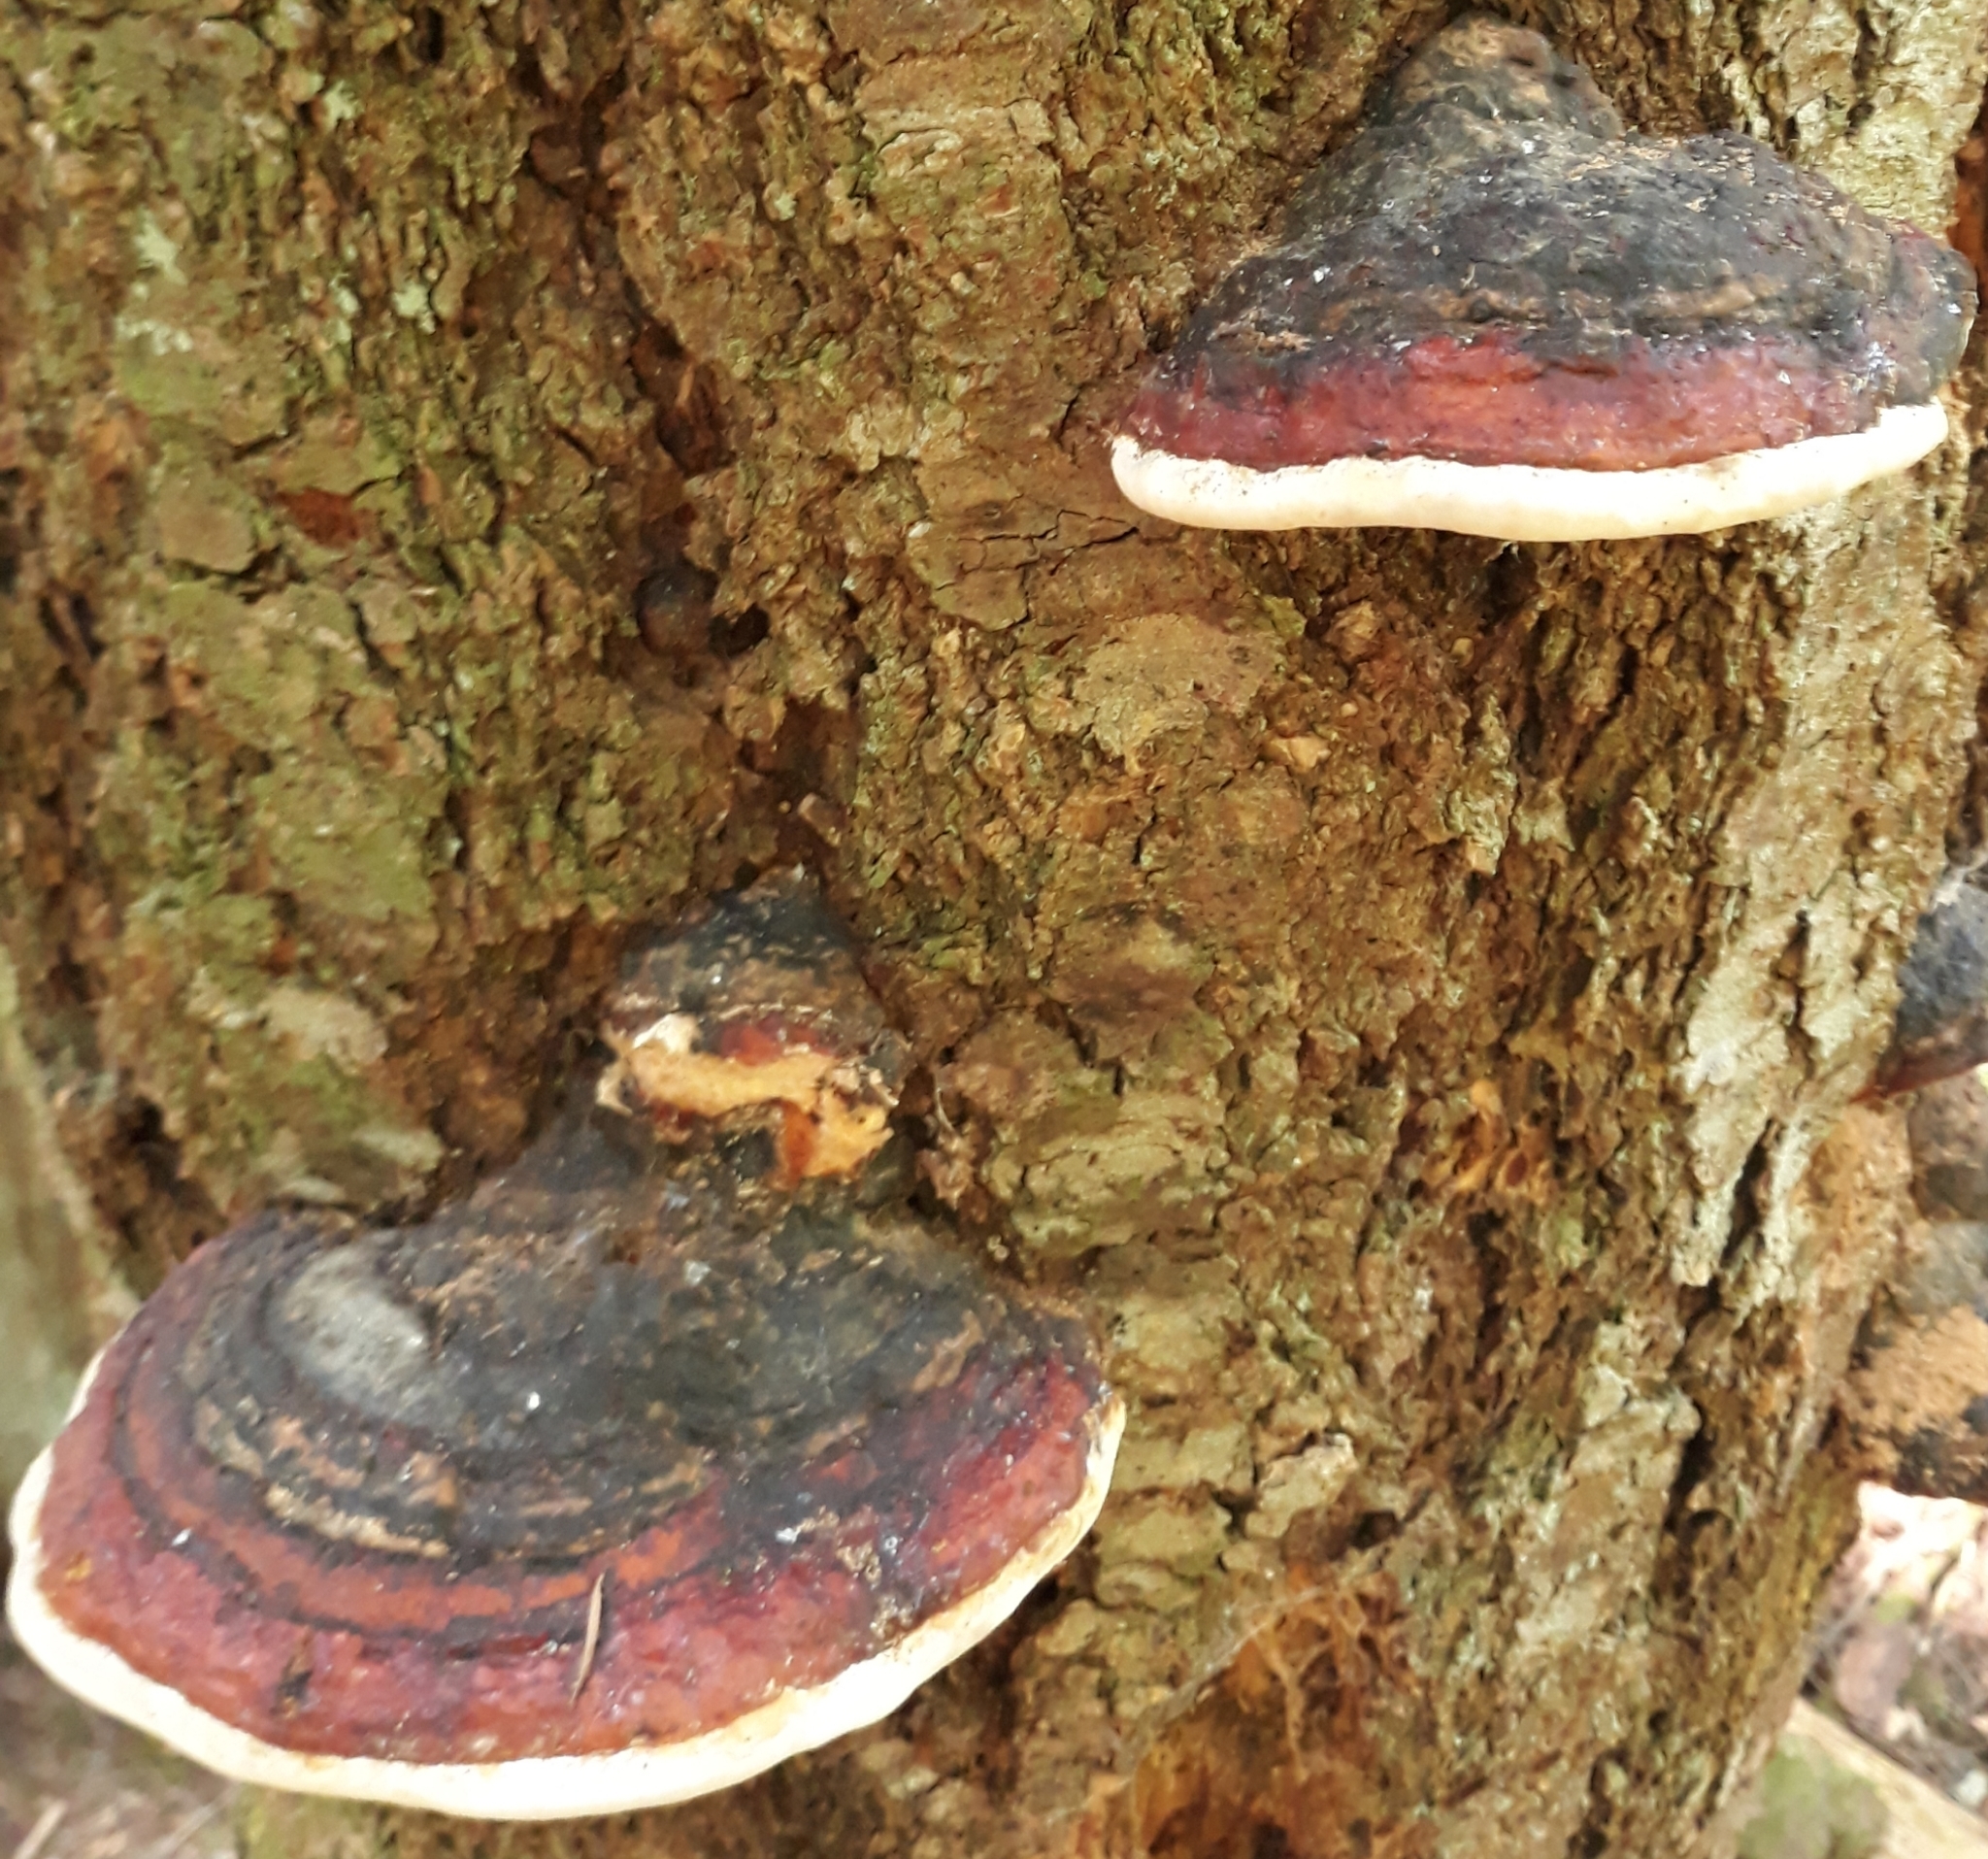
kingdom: Fungi
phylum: Basidiomycota
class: Agaricomycetes
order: Polyporales
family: Fomitopsidaceae
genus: Fomitopsis
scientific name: Fomitopsis mounceae
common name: Northern red belt
